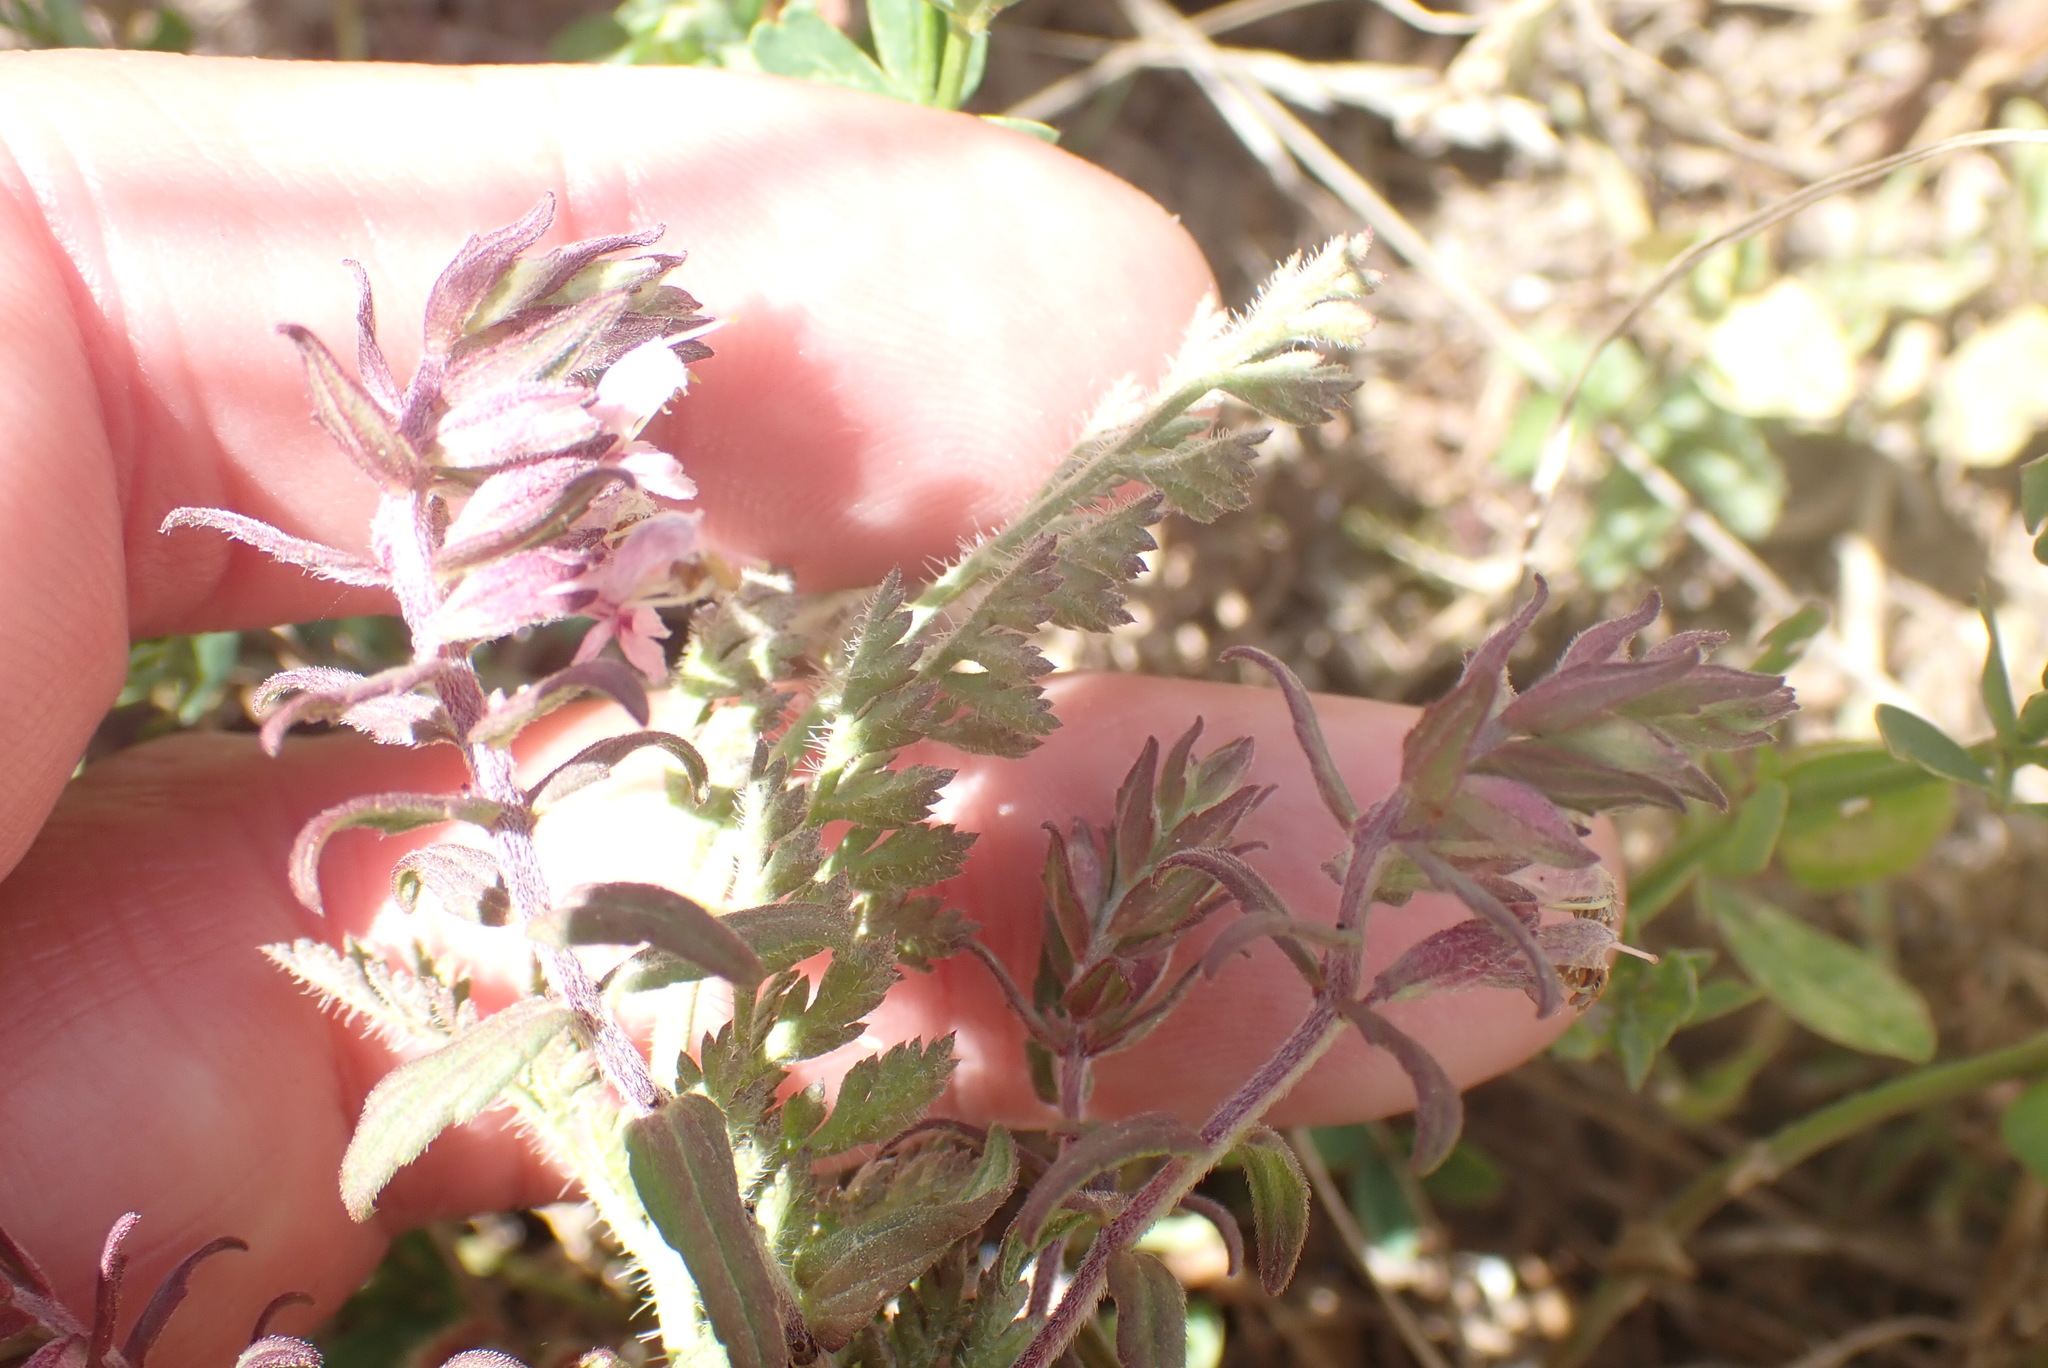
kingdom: Plantae
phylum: Tracheophyta
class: Magnoliopsida
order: Lamiales
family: Orobanchaceae
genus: Odontites
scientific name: Odontites vulgaris
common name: Broomrape
